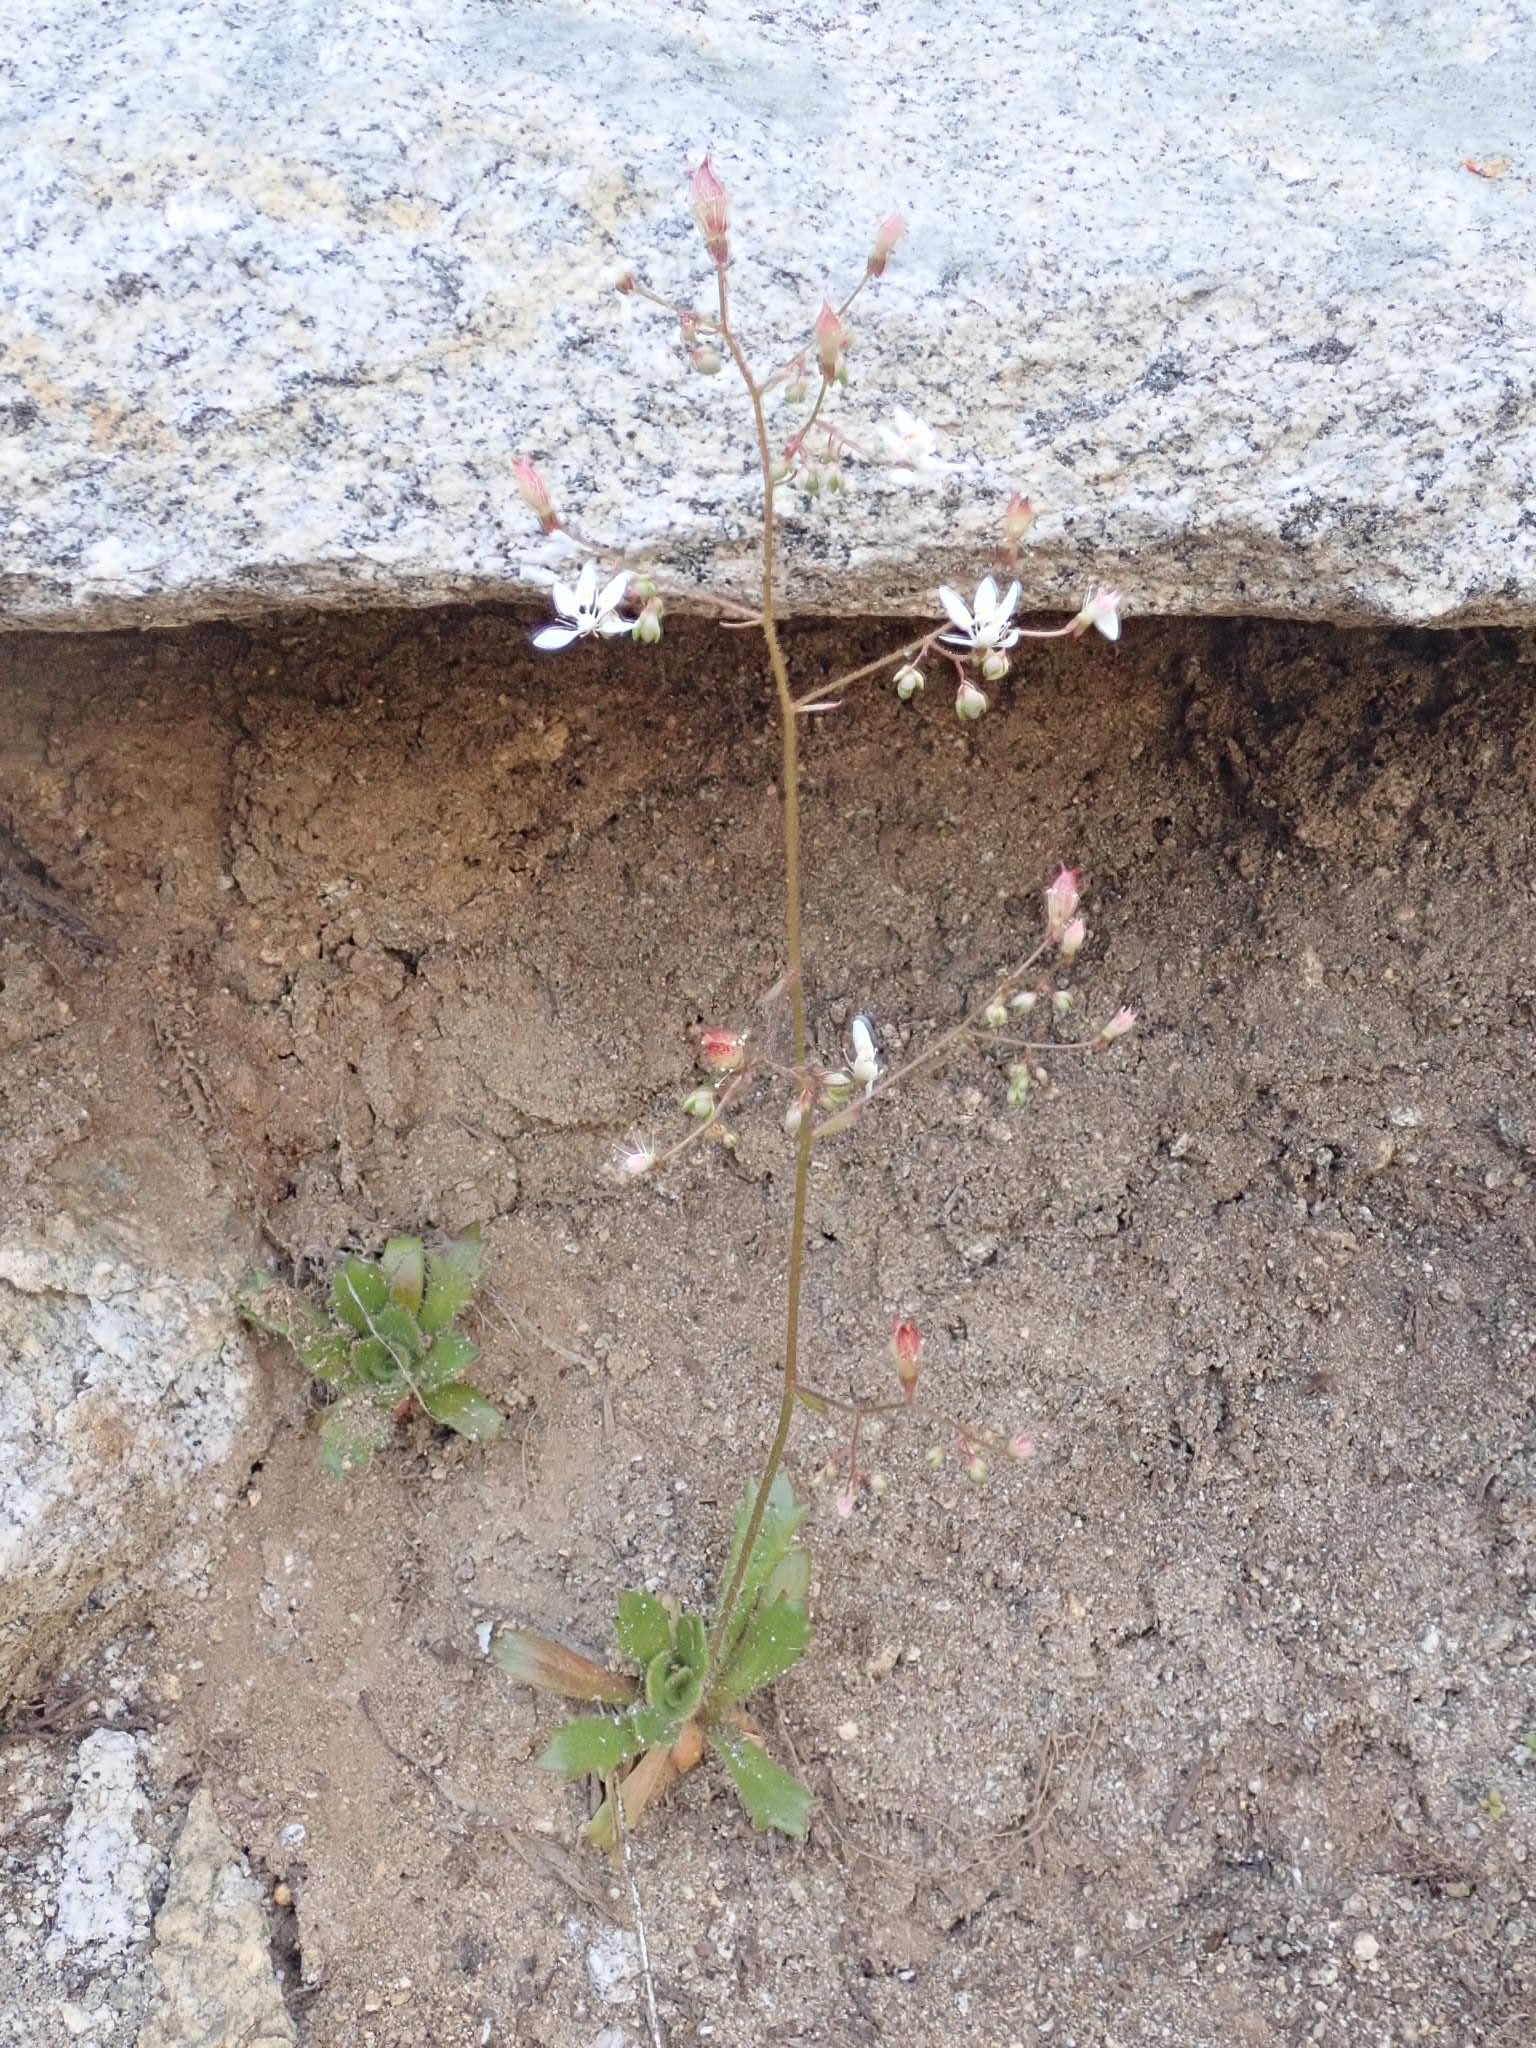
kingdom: Plantae
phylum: Tracheophyta
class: Magnoliopsida
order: Saxifragales
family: Saxifragaceae
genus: Micranthes
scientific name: Micranthes ferruginea
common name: Rusty saxifrage
